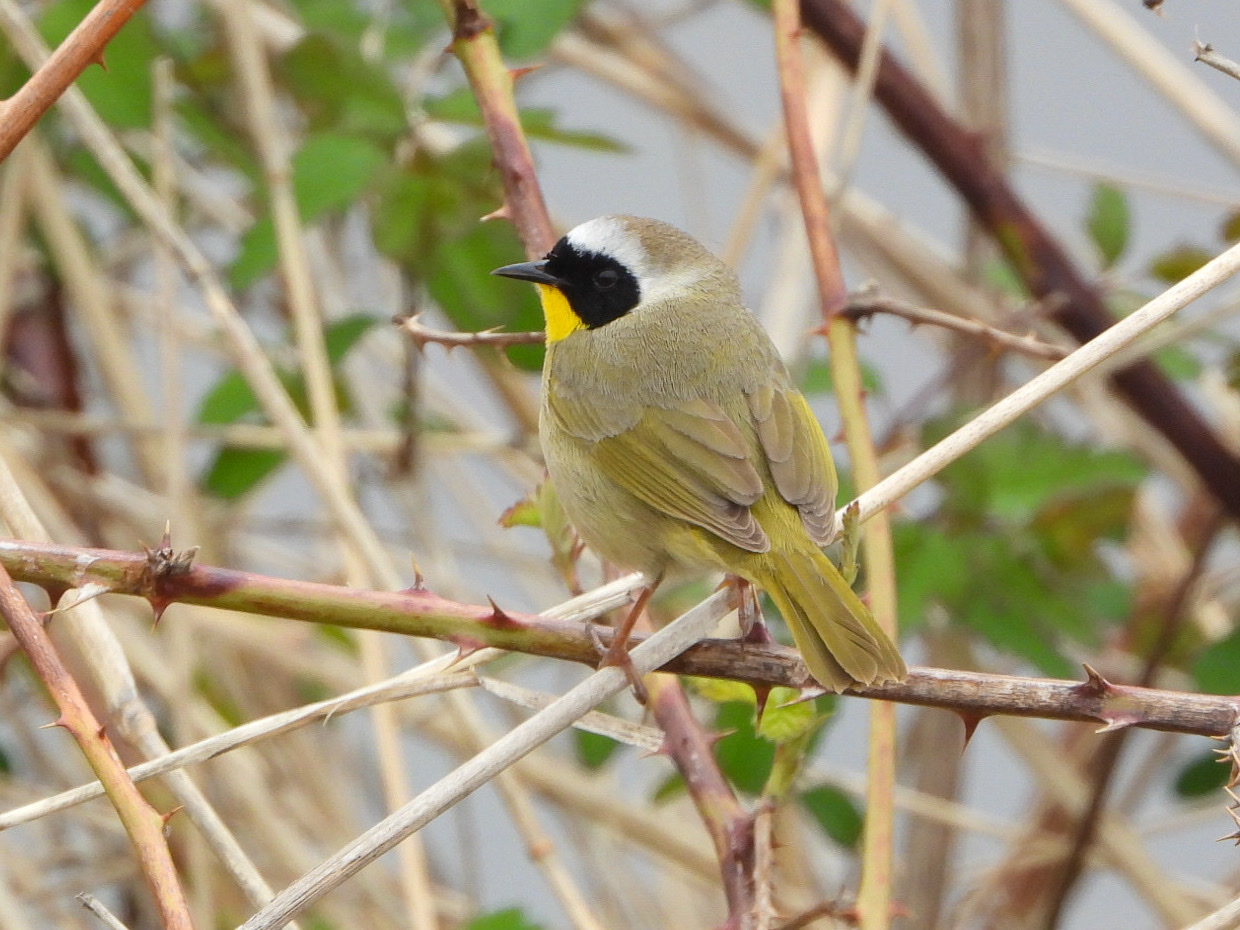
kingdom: Animalia
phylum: Chordata
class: Aves
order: Passeriformes
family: Parulidae
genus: Geothlypis
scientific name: Geothlypis trichas
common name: Common yellowthroat
